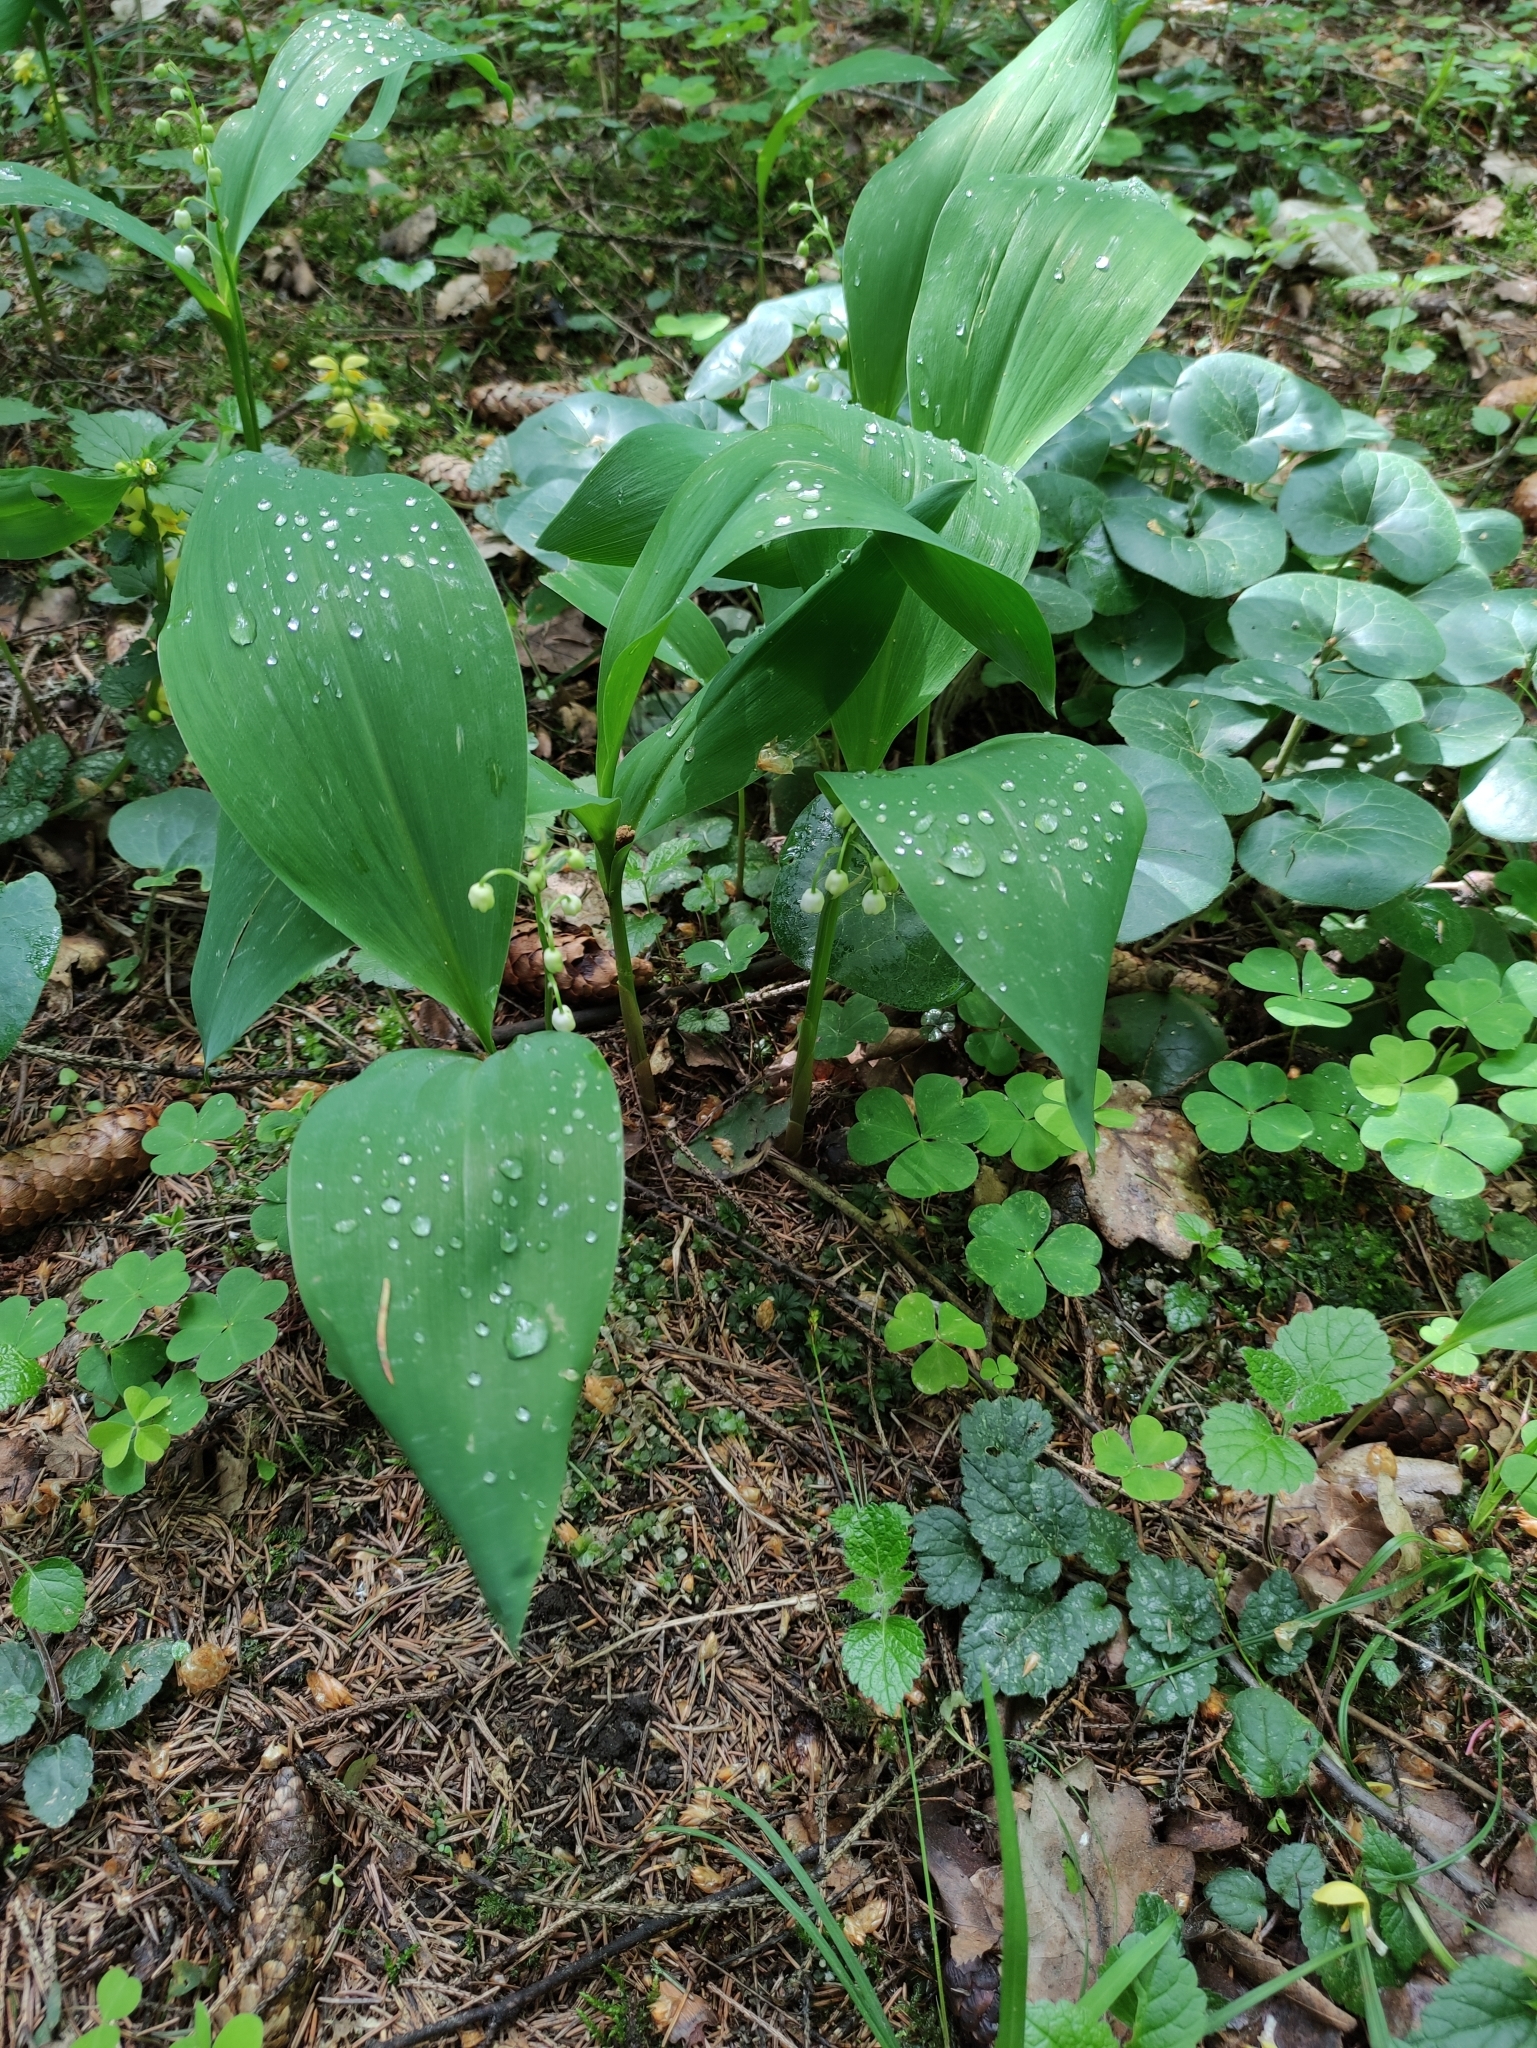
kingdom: Plantae
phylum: Tracheophyta
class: Liliopsida
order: Asparagales
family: Asparagaceae
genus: Convallaria
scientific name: Convallaria majalis
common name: Lily-of-the-valley
